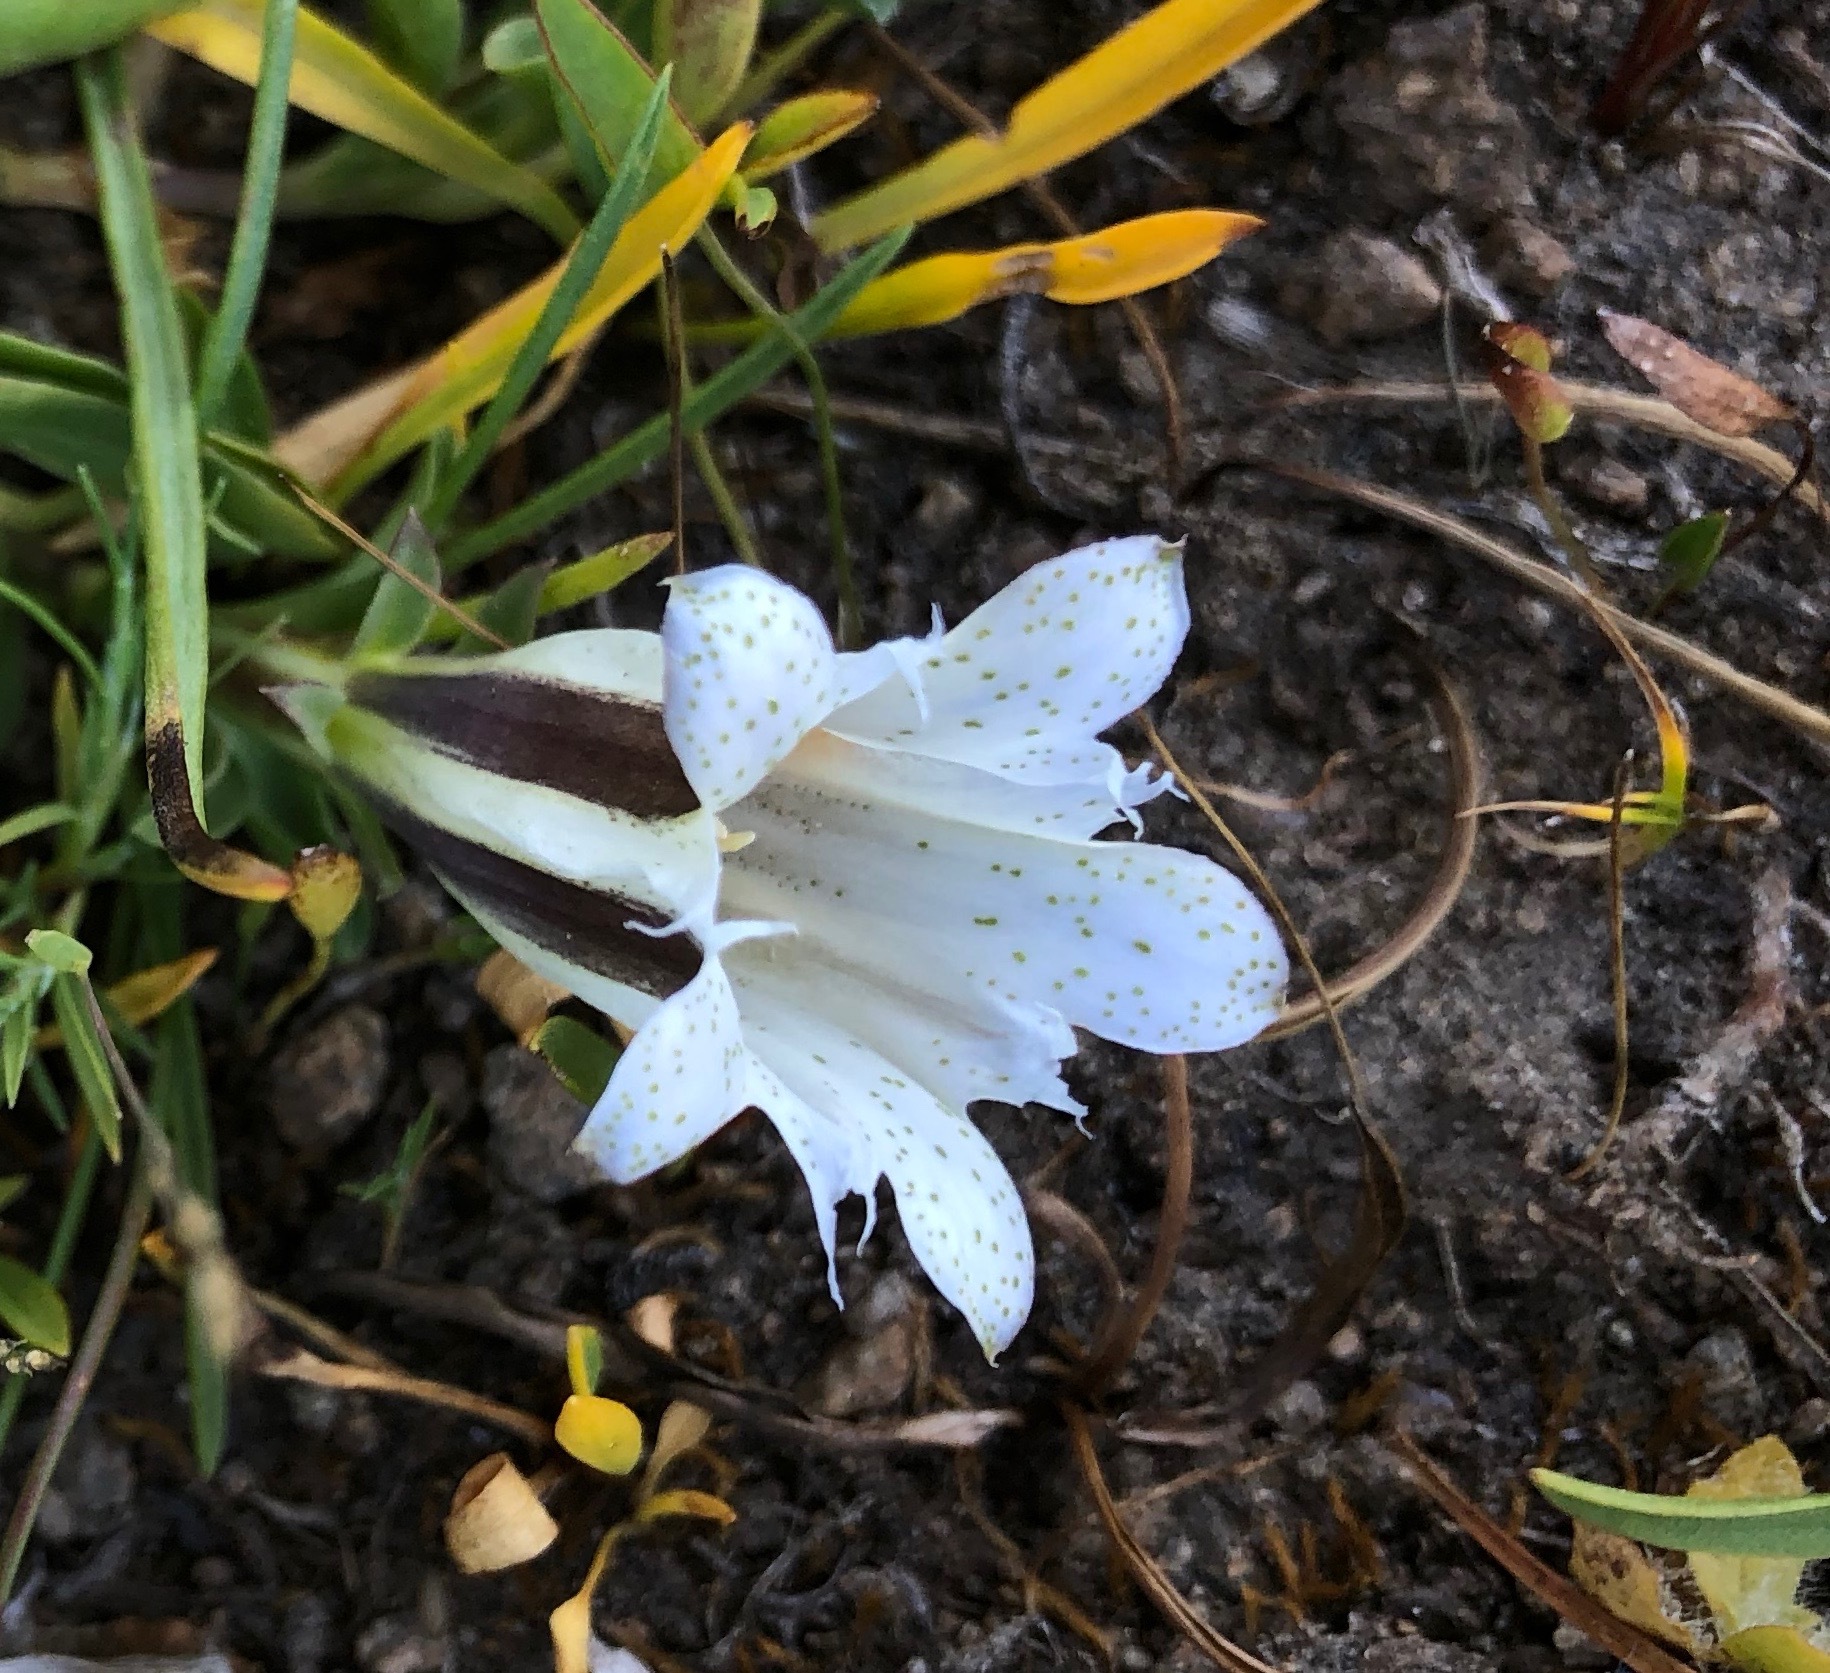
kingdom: Plantae
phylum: Tracheophyta
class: Magnoliopsida
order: Gentianales
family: Gentianaceae
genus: Gentiana
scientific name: Gentiana newberryi
